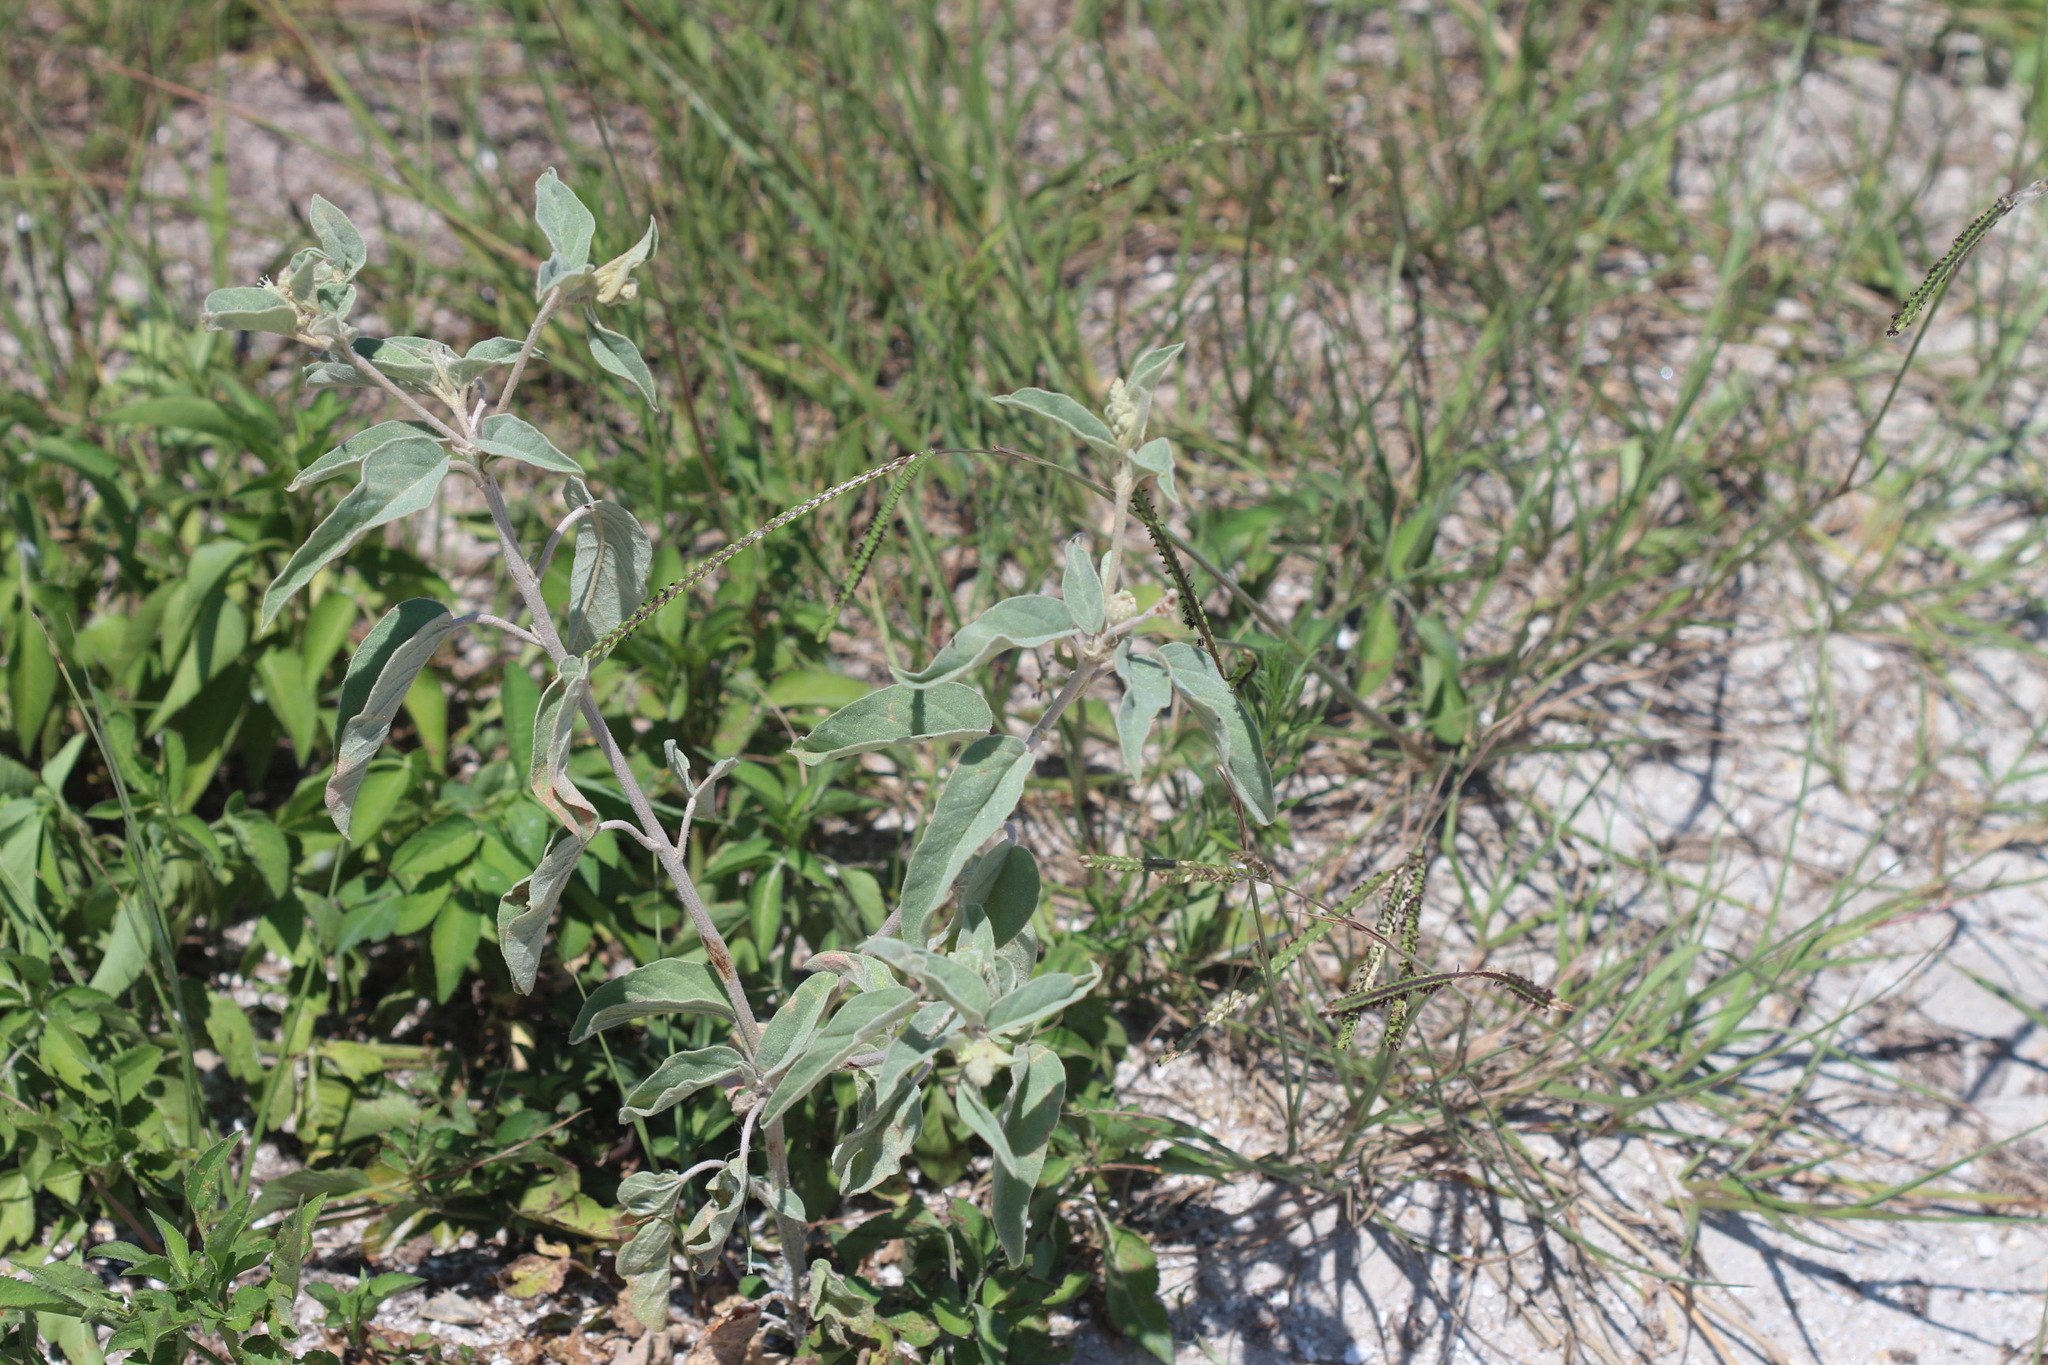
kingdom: Plantae
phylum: Tracheophyta
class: Magnoliopsida
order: Malpighiales
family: Euphorbiaceae
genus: Croton
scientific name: Croton lindheimeri
